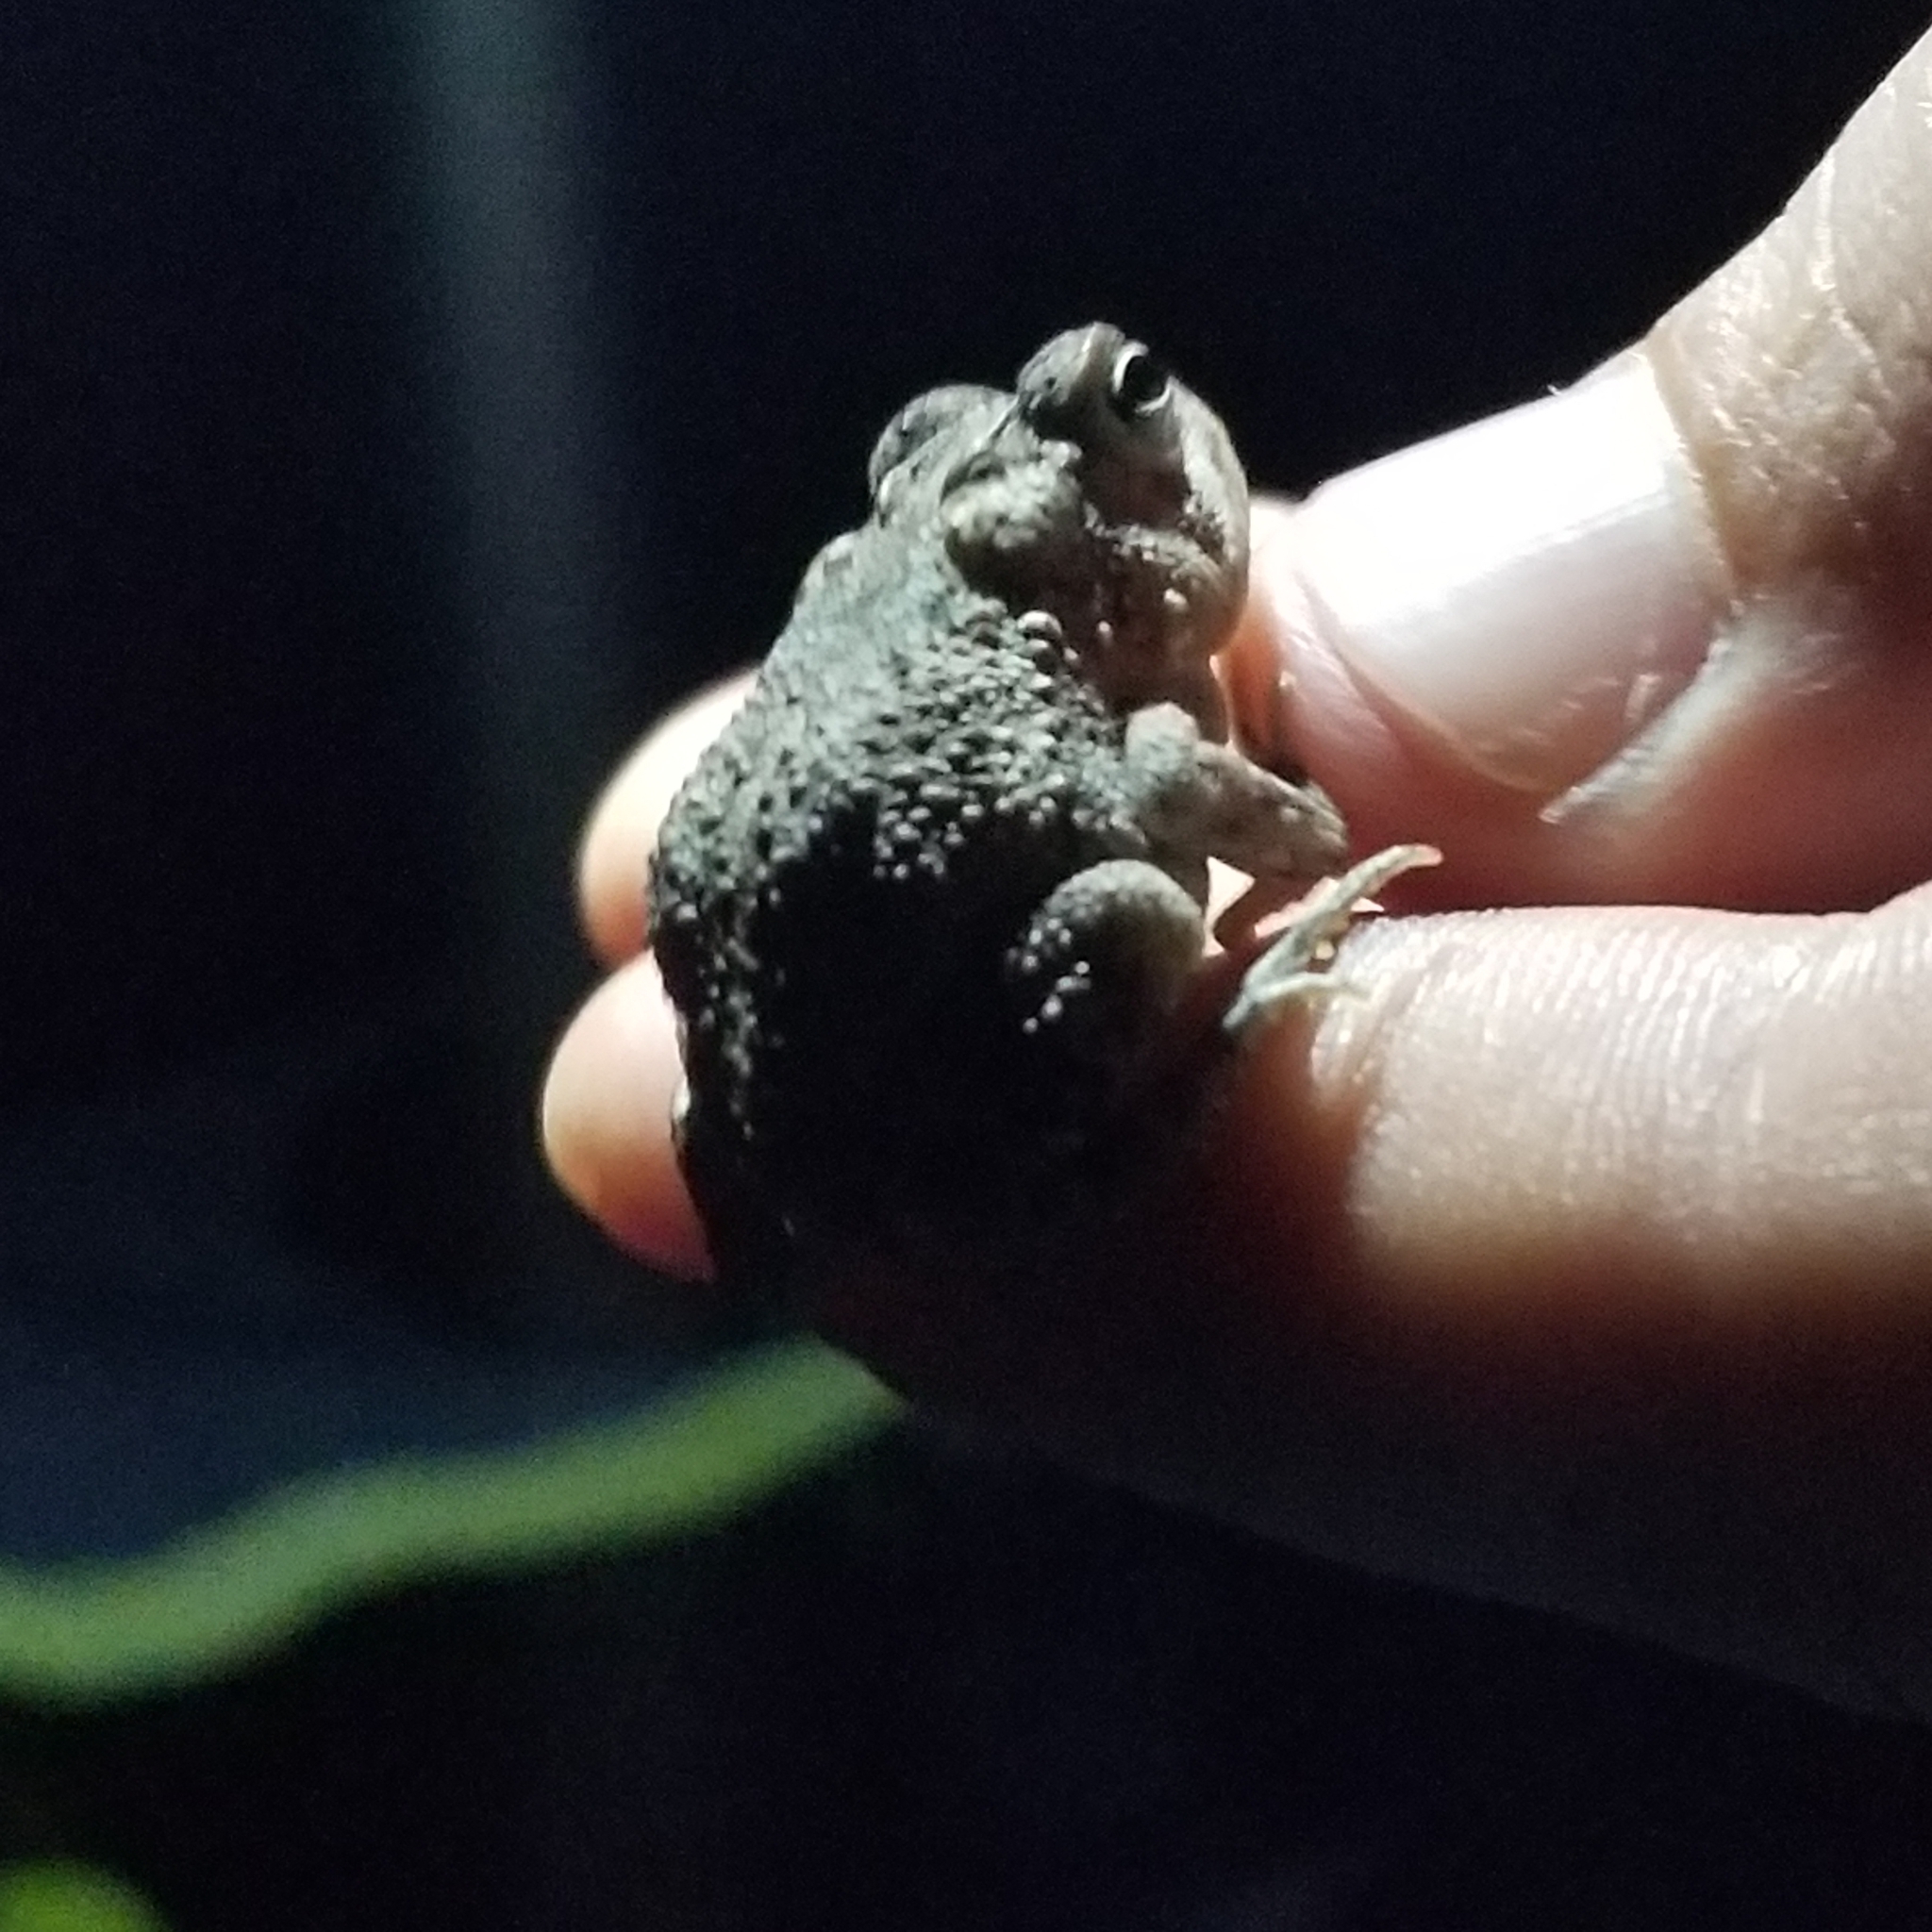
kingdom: Animalia
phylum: Chordata
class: Amphibia
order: Anura
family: Bufonidae
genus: Anaxyrus
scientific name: Anaxyrus terrestris
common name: Southern toad
